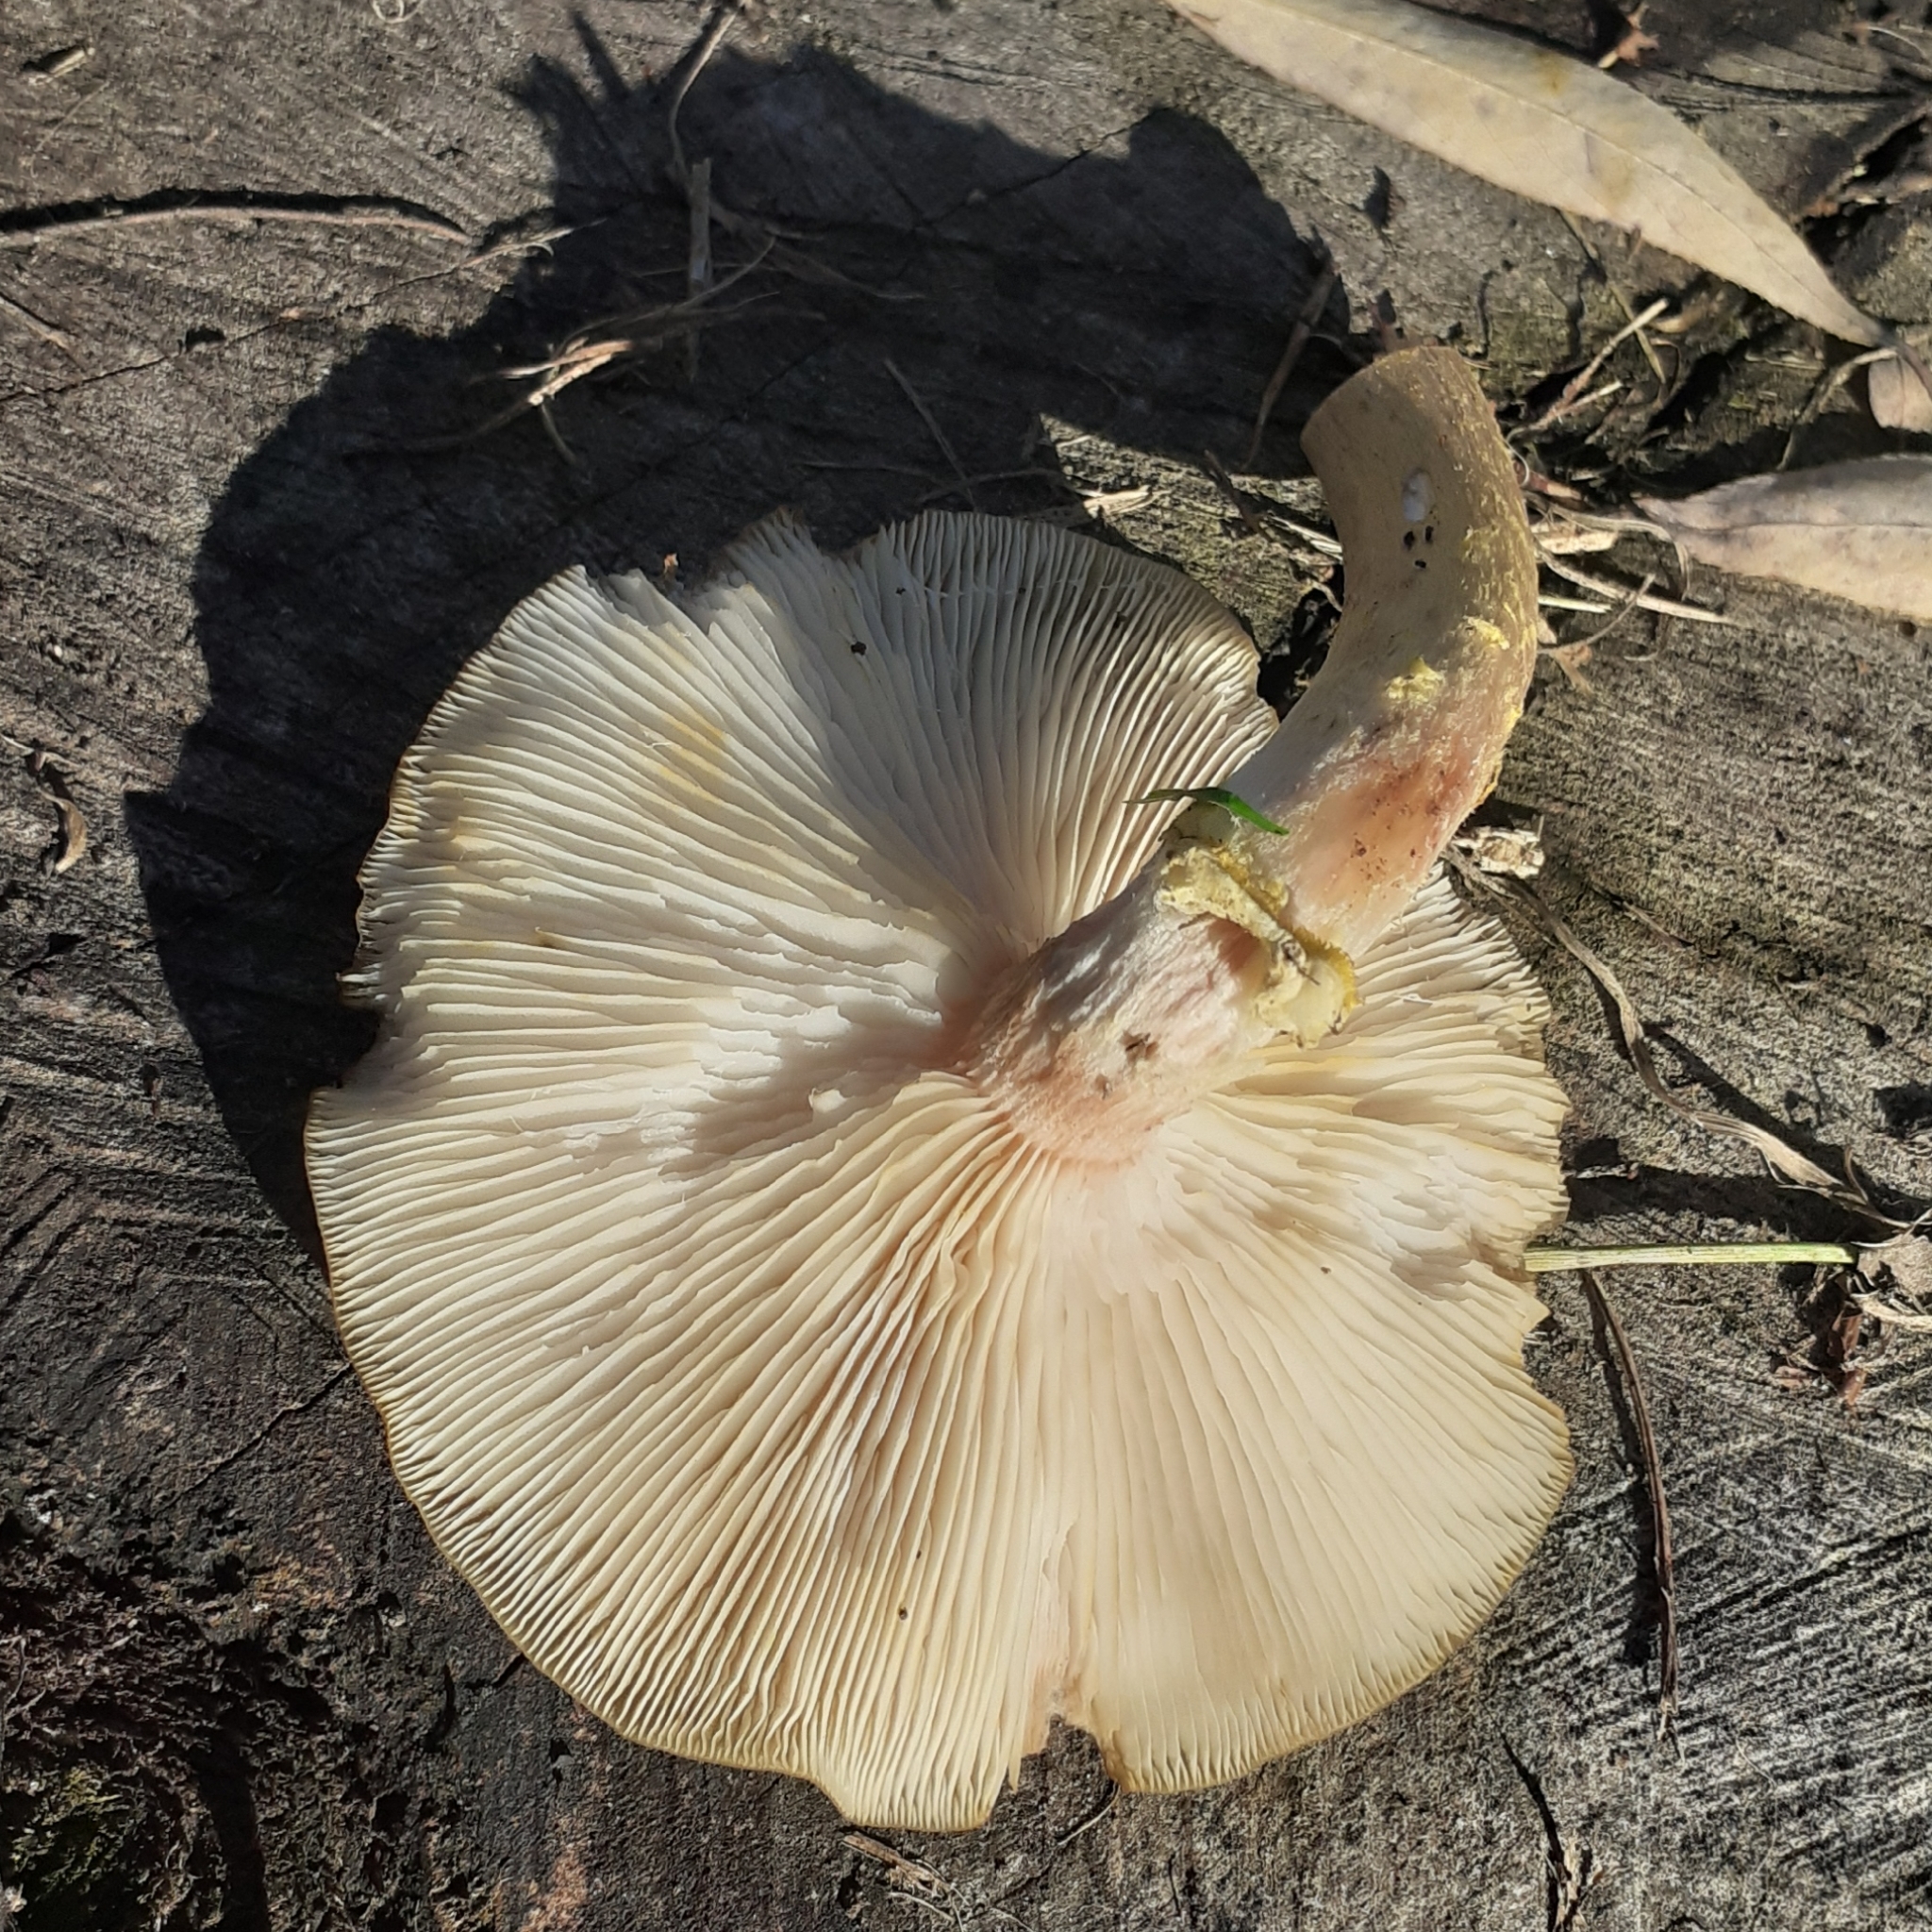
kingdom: Fungi
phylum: Basidiomycota
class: Agaricomycetes
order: Agaricales
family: Physalacriaceae
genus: Armillaria
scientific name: Armillaria mellea
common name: Honey fungus
